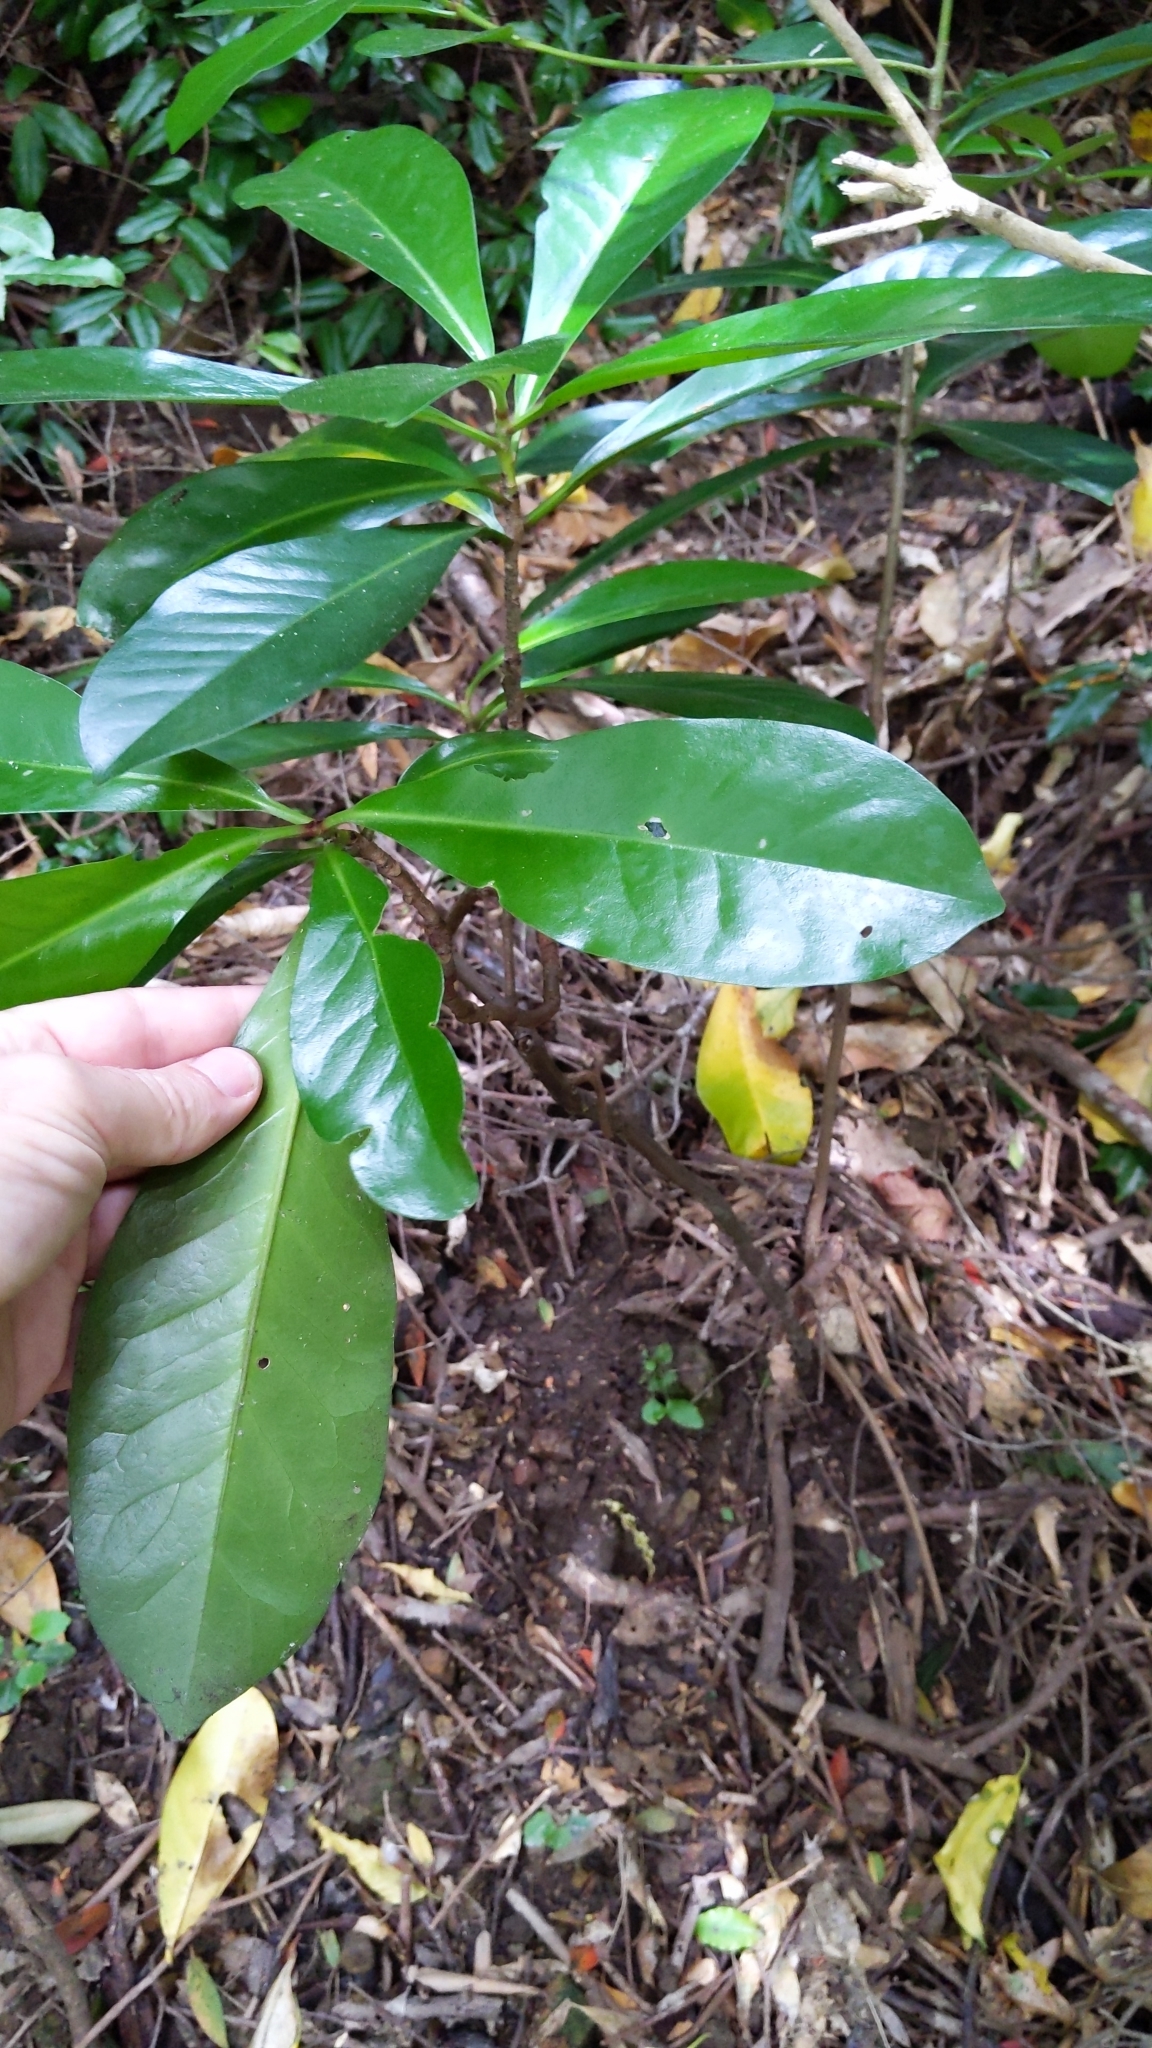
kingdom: Plantae
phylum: Tracheophyta
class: Magnoliopsida
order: Cucurbitales
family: Corynocarpaceae
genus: Corynocarpus
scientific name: Corynocarpus laevigatus
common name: New zealand laurel
